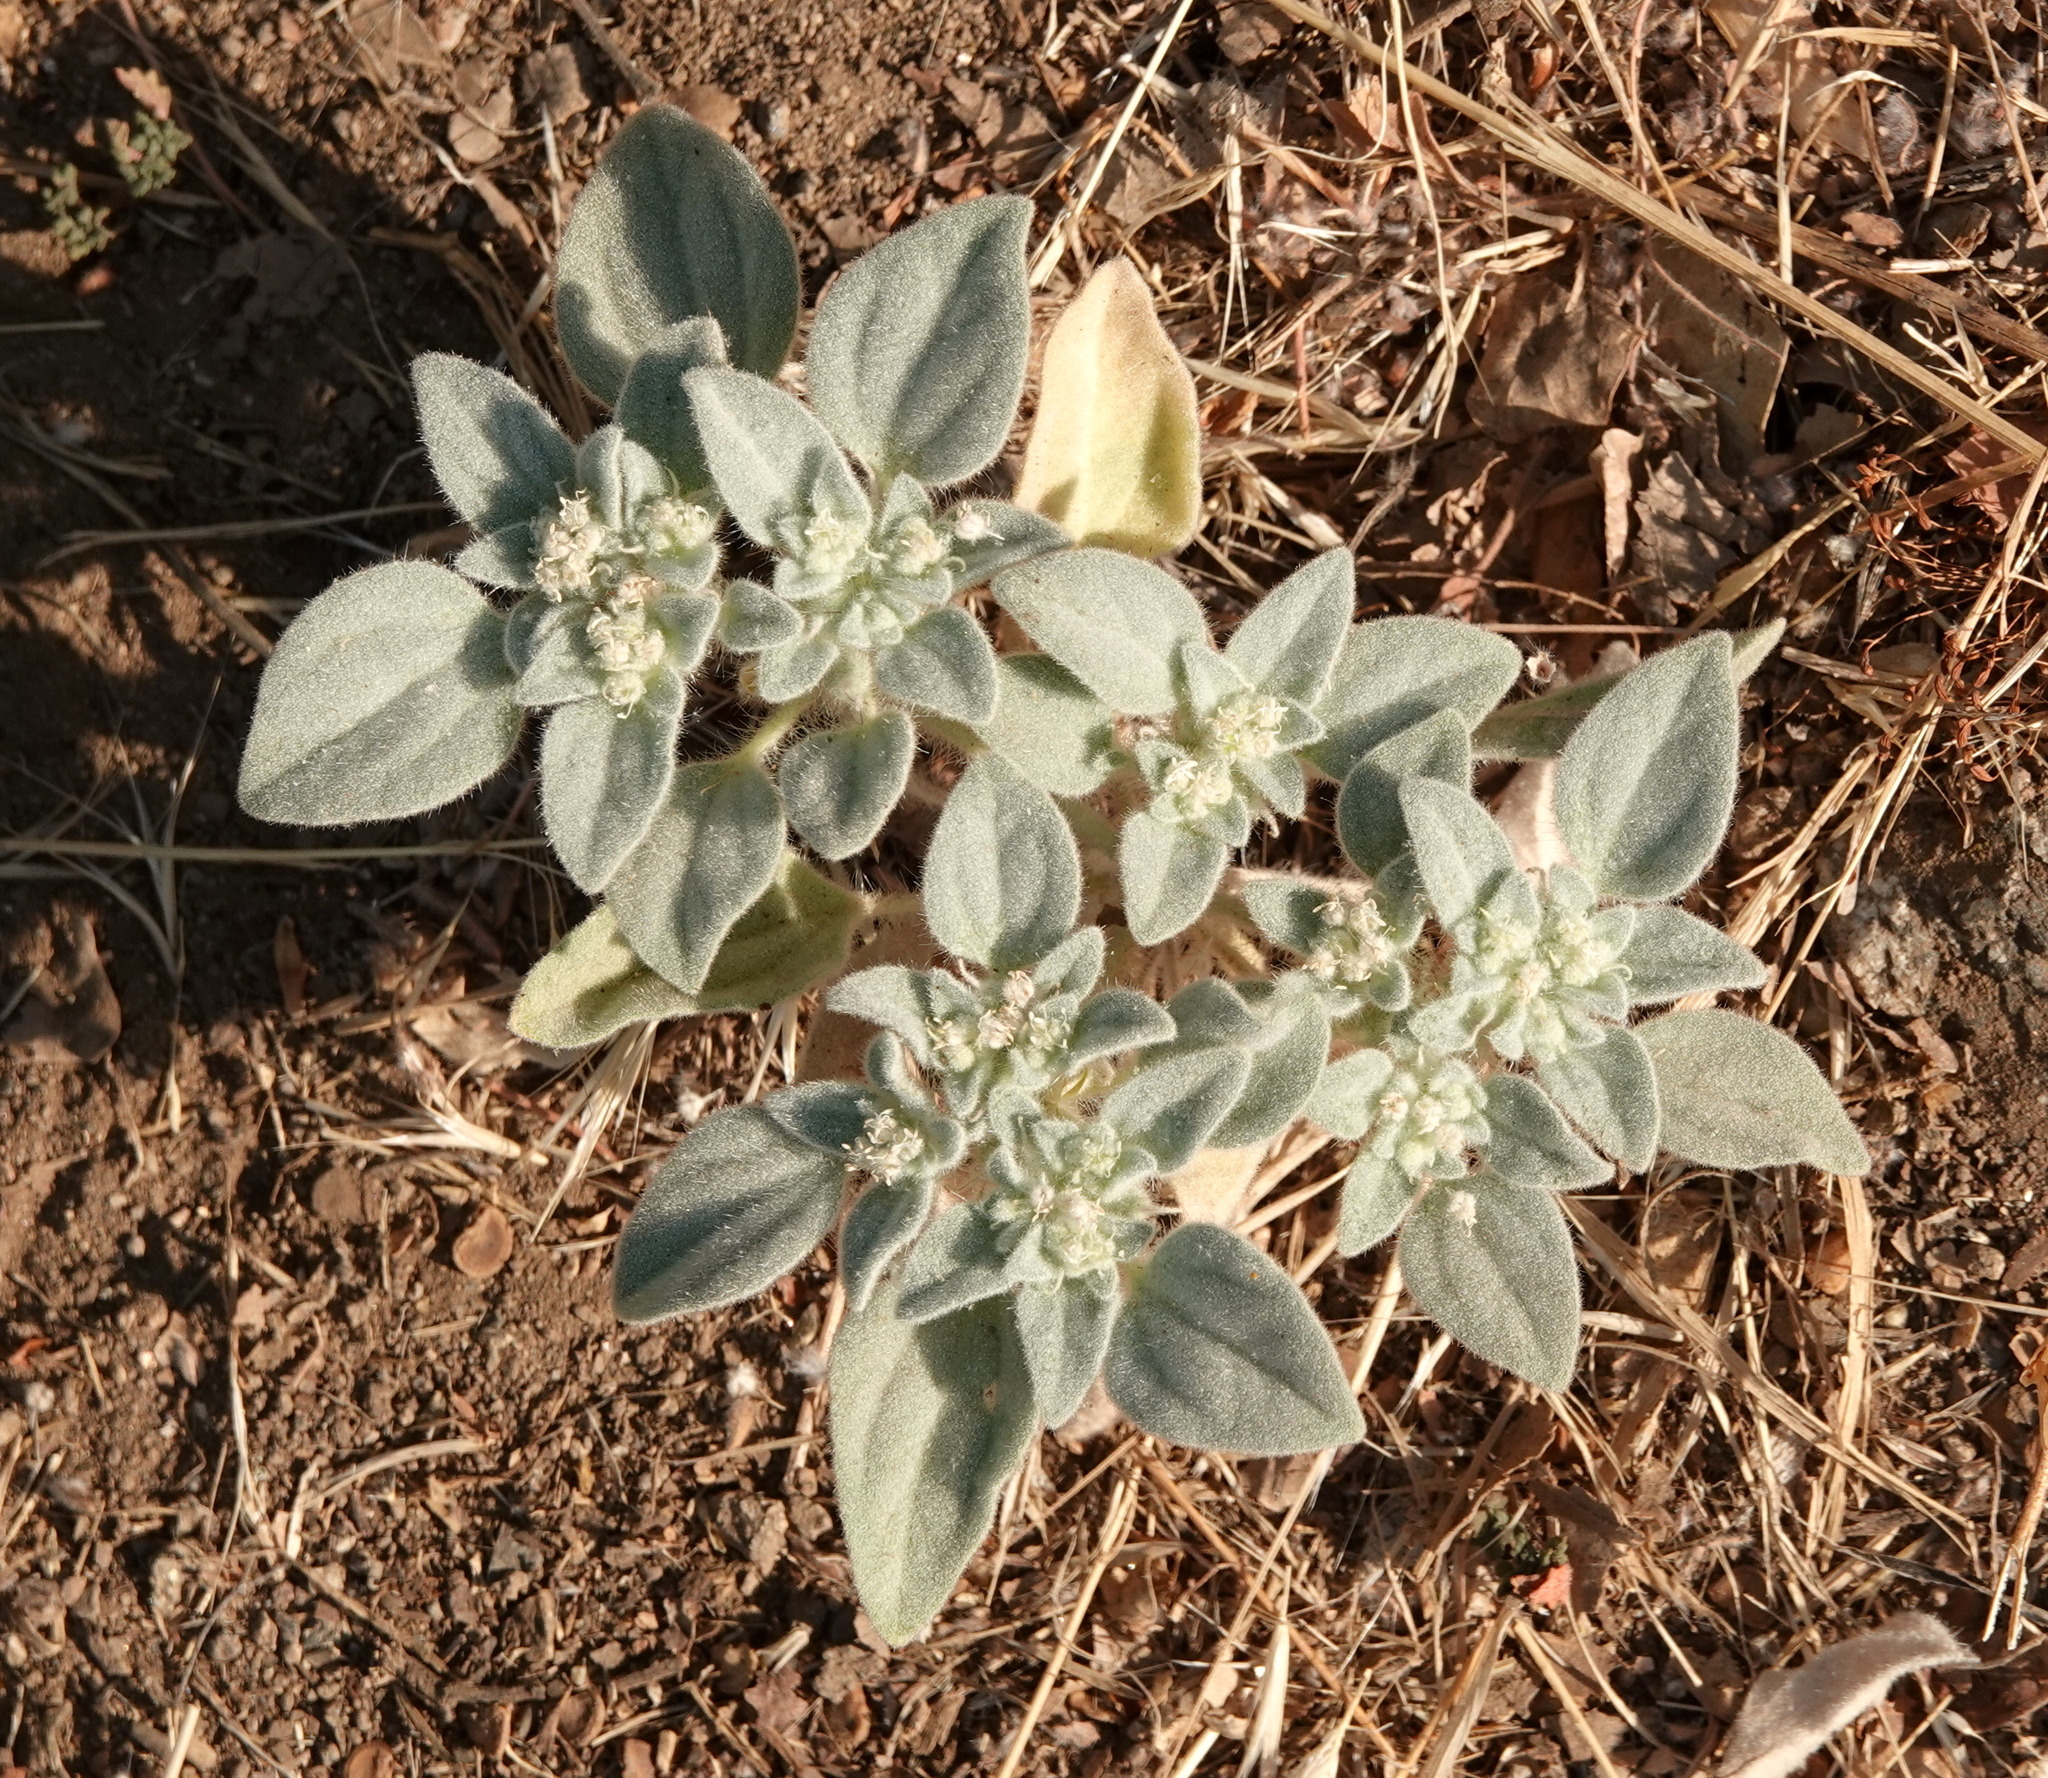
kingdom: Plantae
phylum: Tracheophyta
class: Magnoliopsida
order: Malpighiales
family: Euphorbiaceae
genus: Croton
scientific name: Croton setiger
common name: Dove weed
